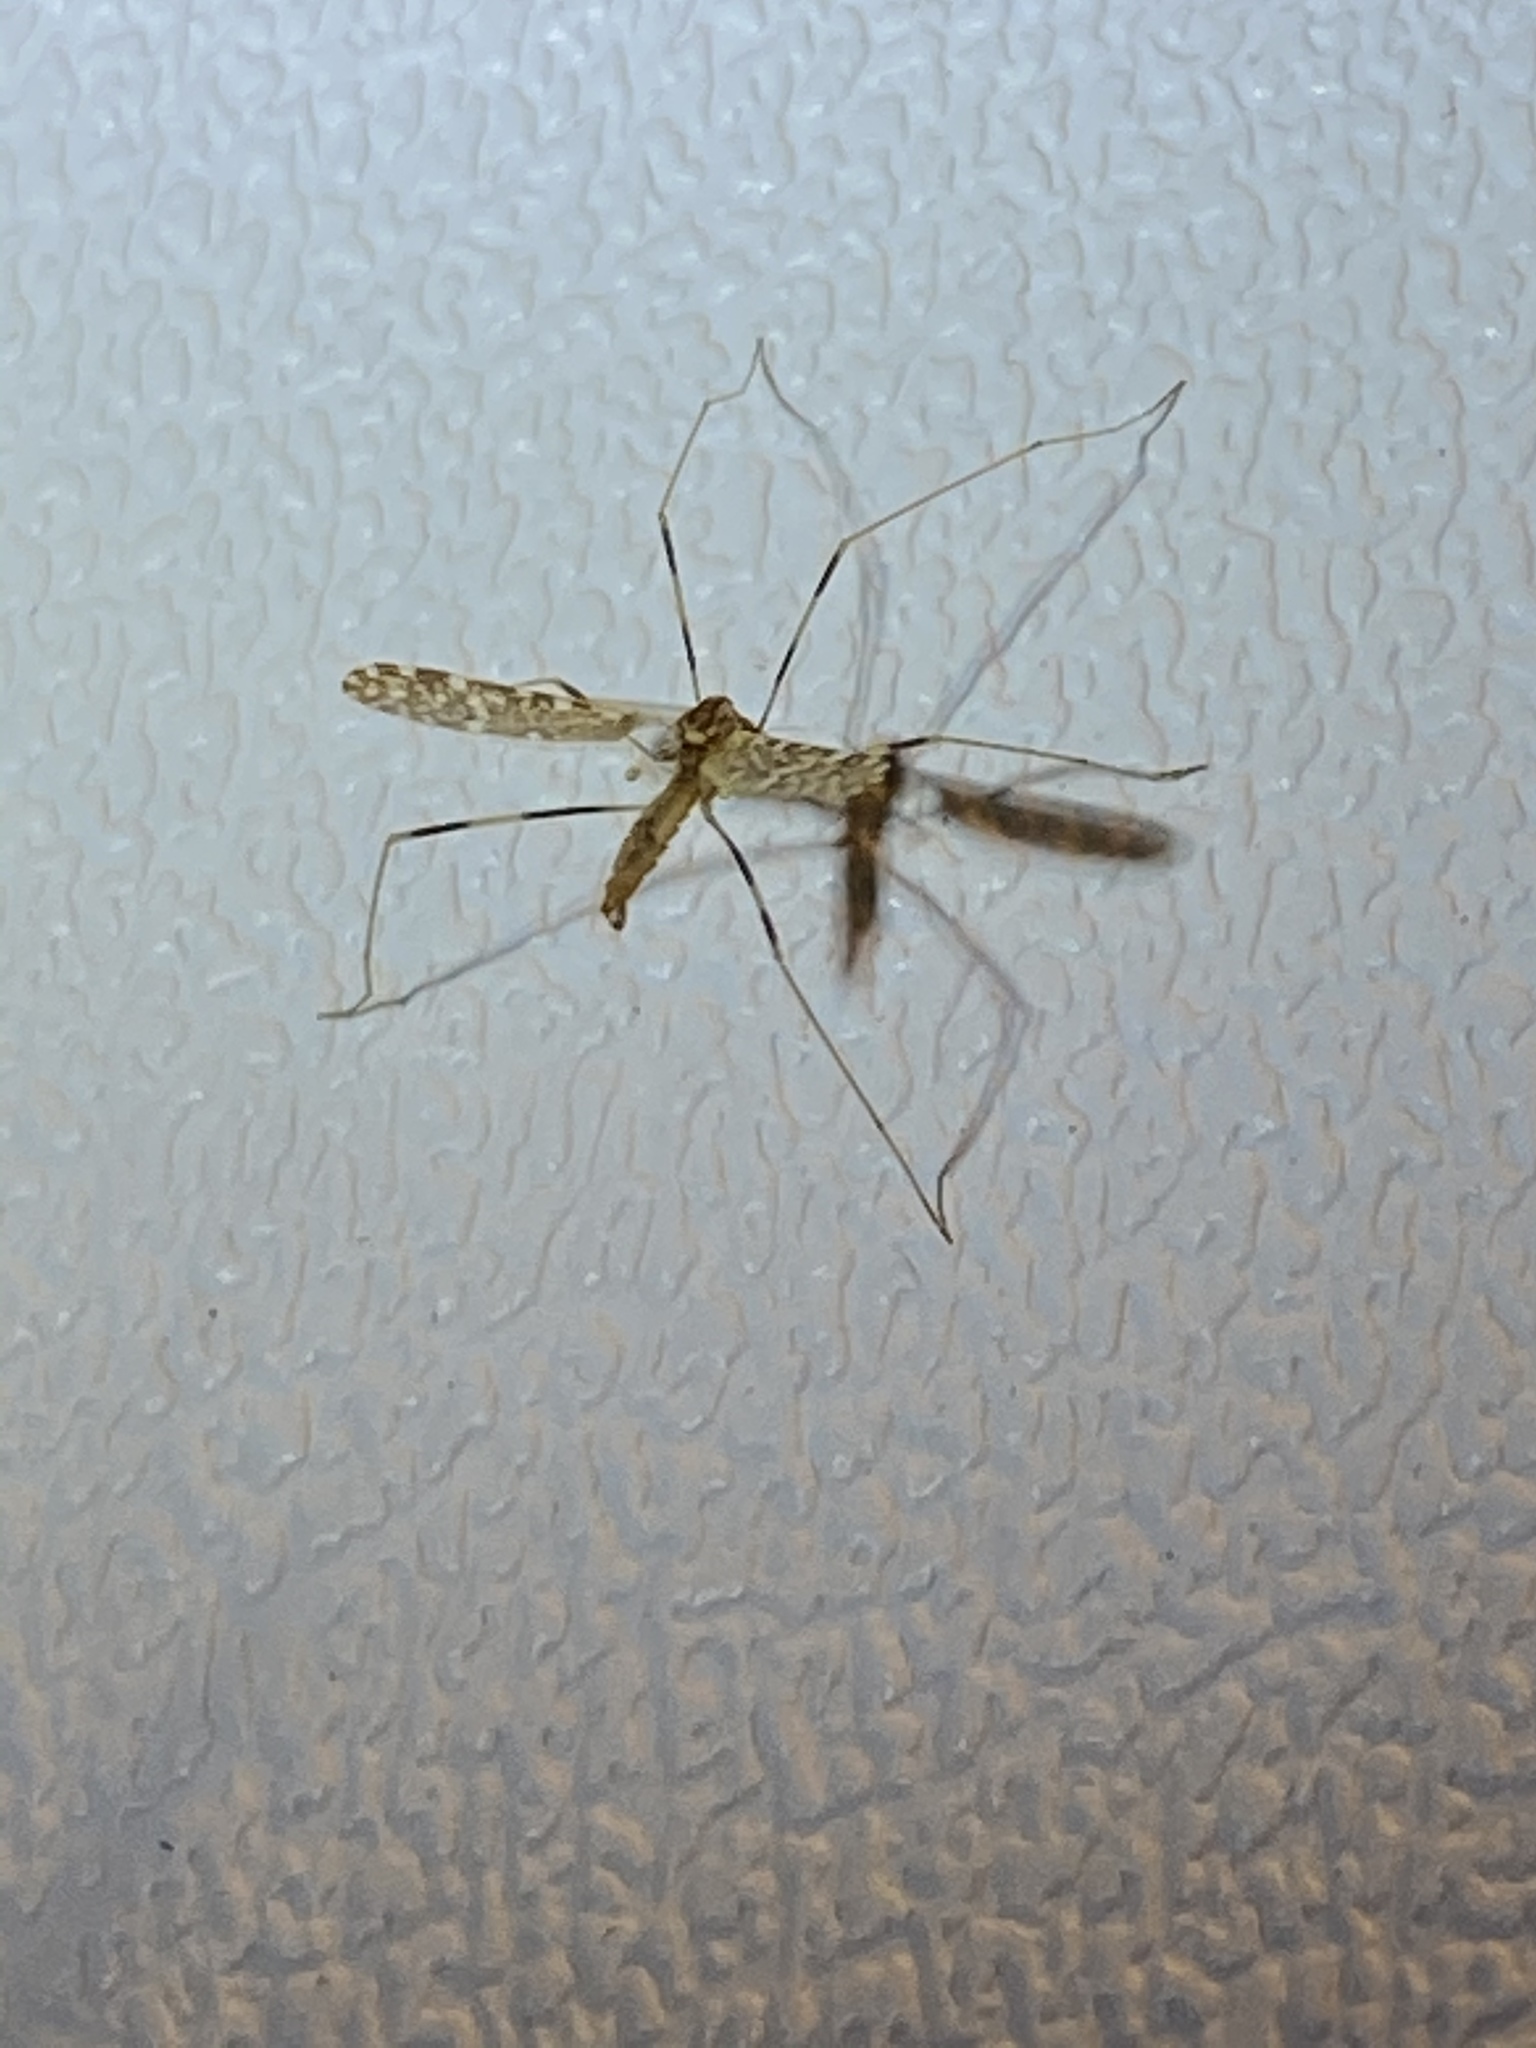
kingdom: Animalia
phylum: Arthropoda
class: Insecta
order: Diptera
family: Limoniidae
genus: Erioptera
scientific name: Erioptera caliptera
